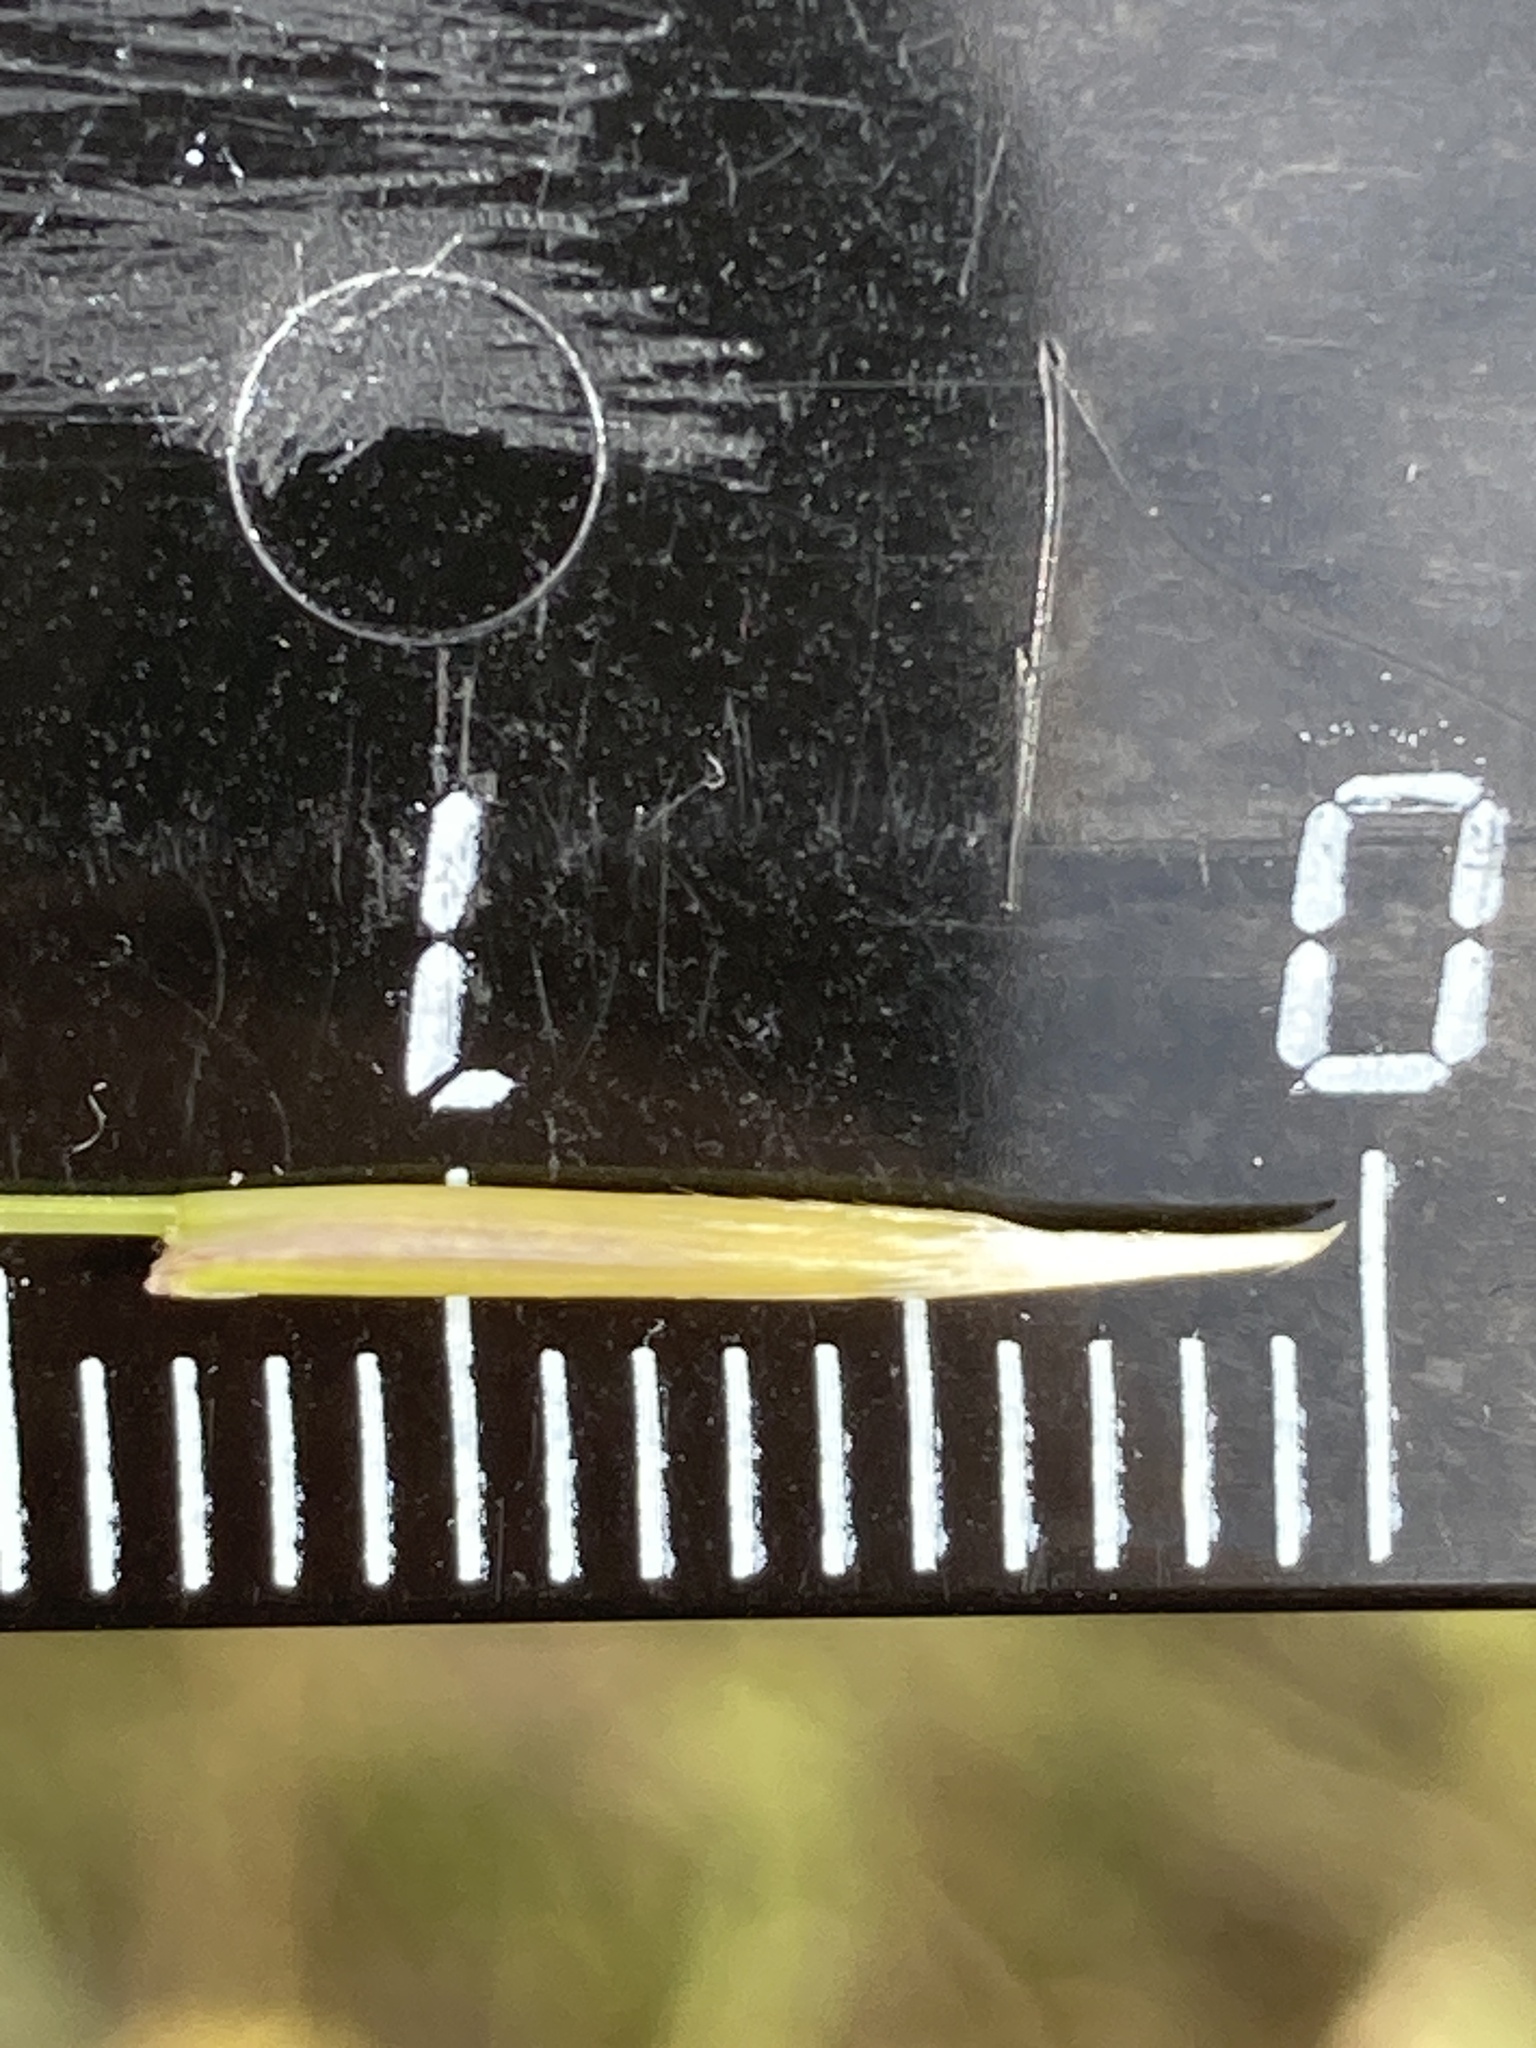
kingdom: Plantae
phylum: Tracheophyta
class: Liliopsida
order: Poales
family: Poaceae
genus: Stipa
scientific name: Stipa capillata
